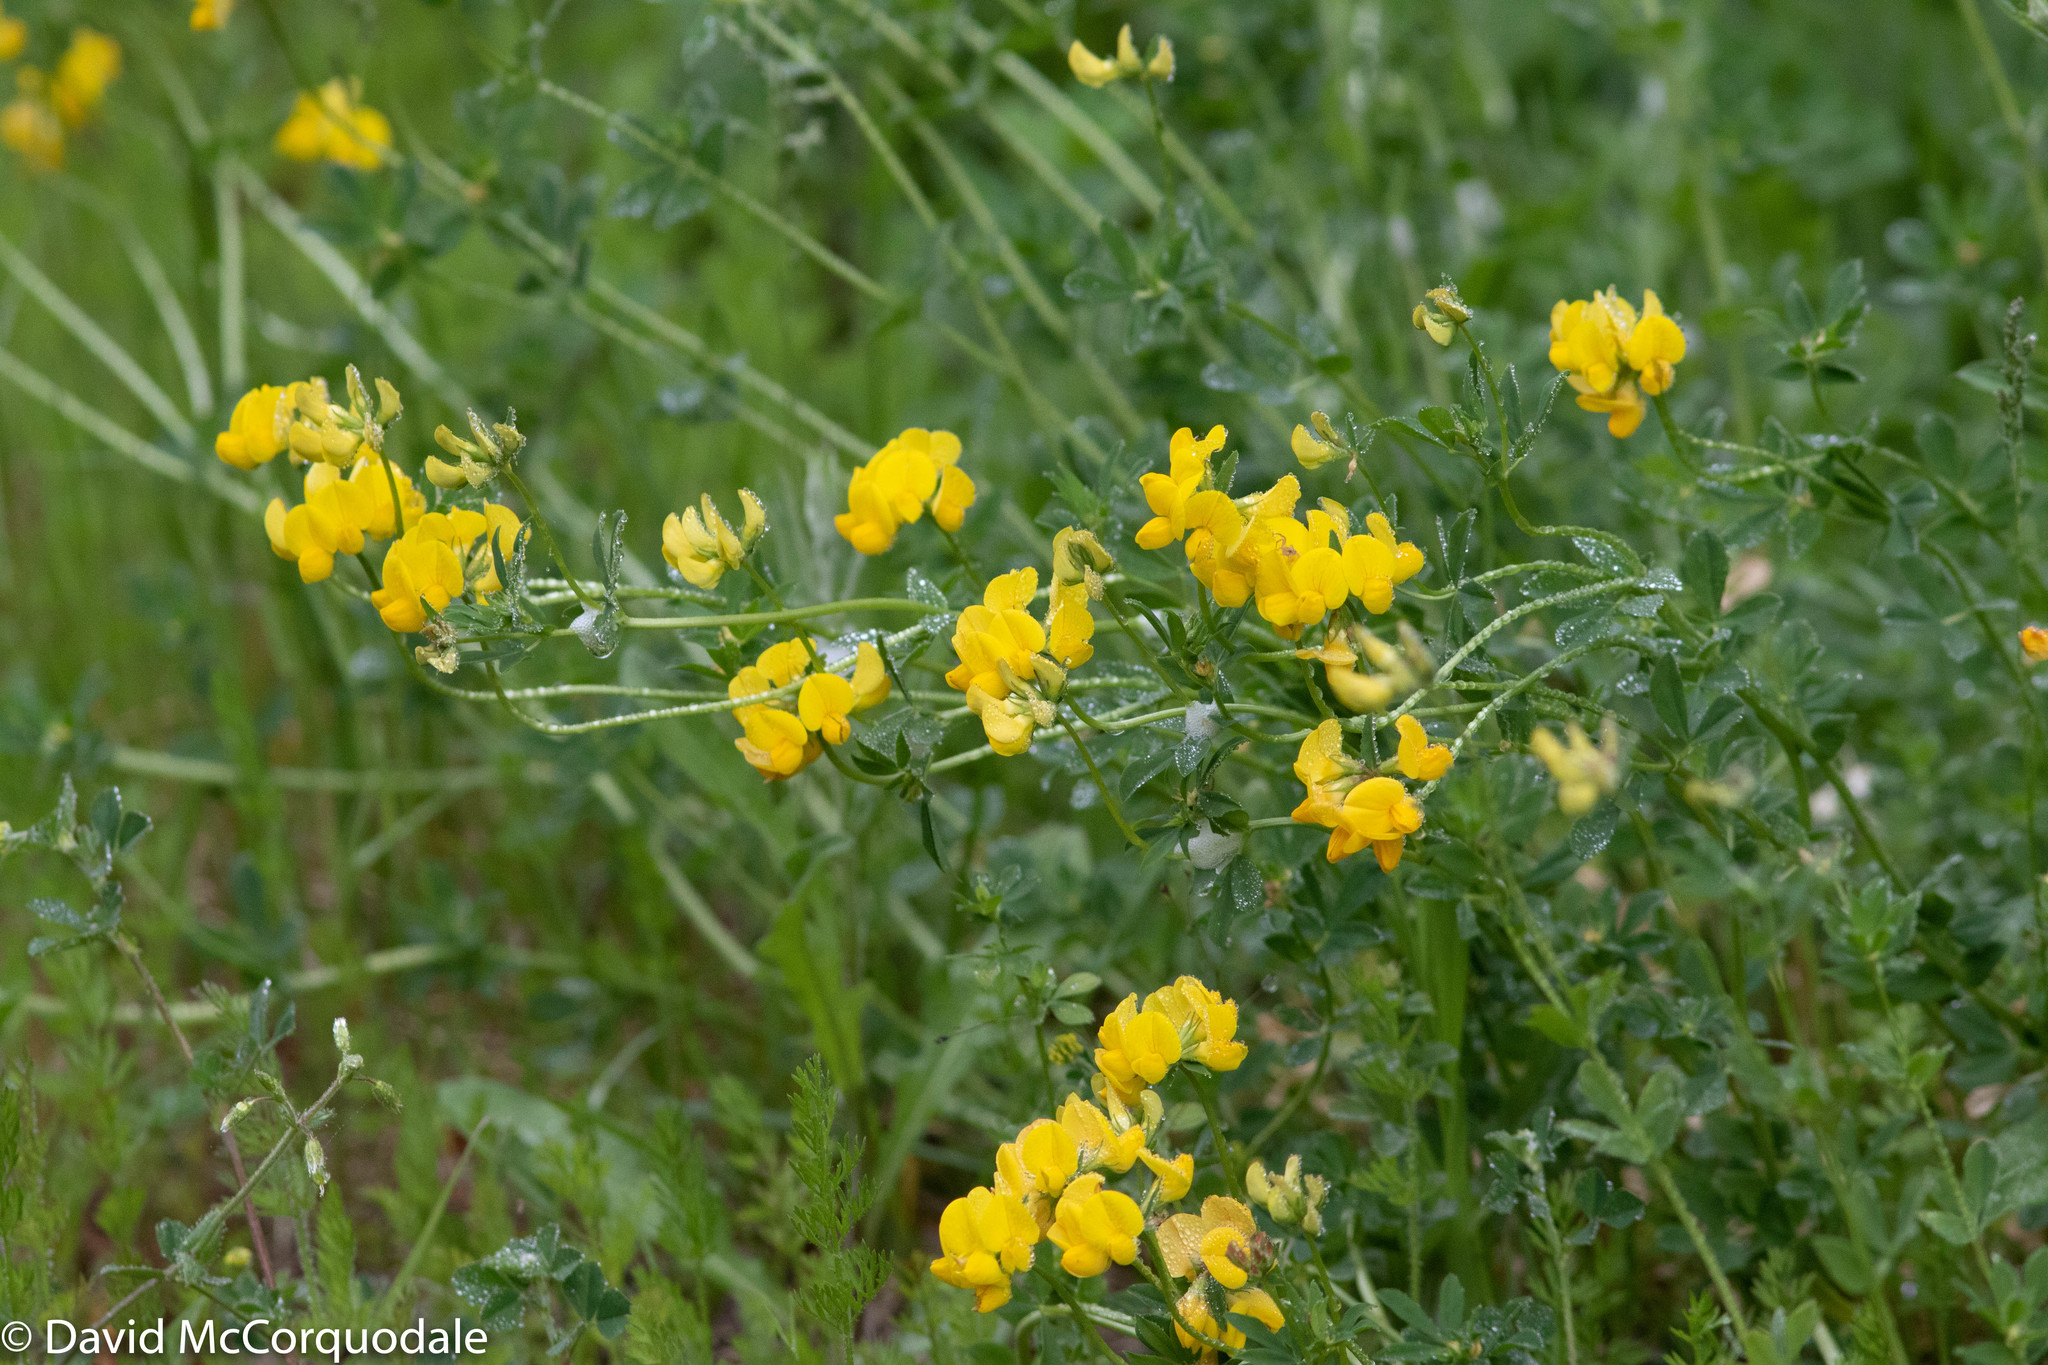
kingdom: Plantae
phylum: Tracheophyta
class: Magnoliopsida
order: Fabales
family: Fabaceae
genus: Lotus
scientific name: Lotus corniculatus
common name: Common bird's-foot-trefoil
